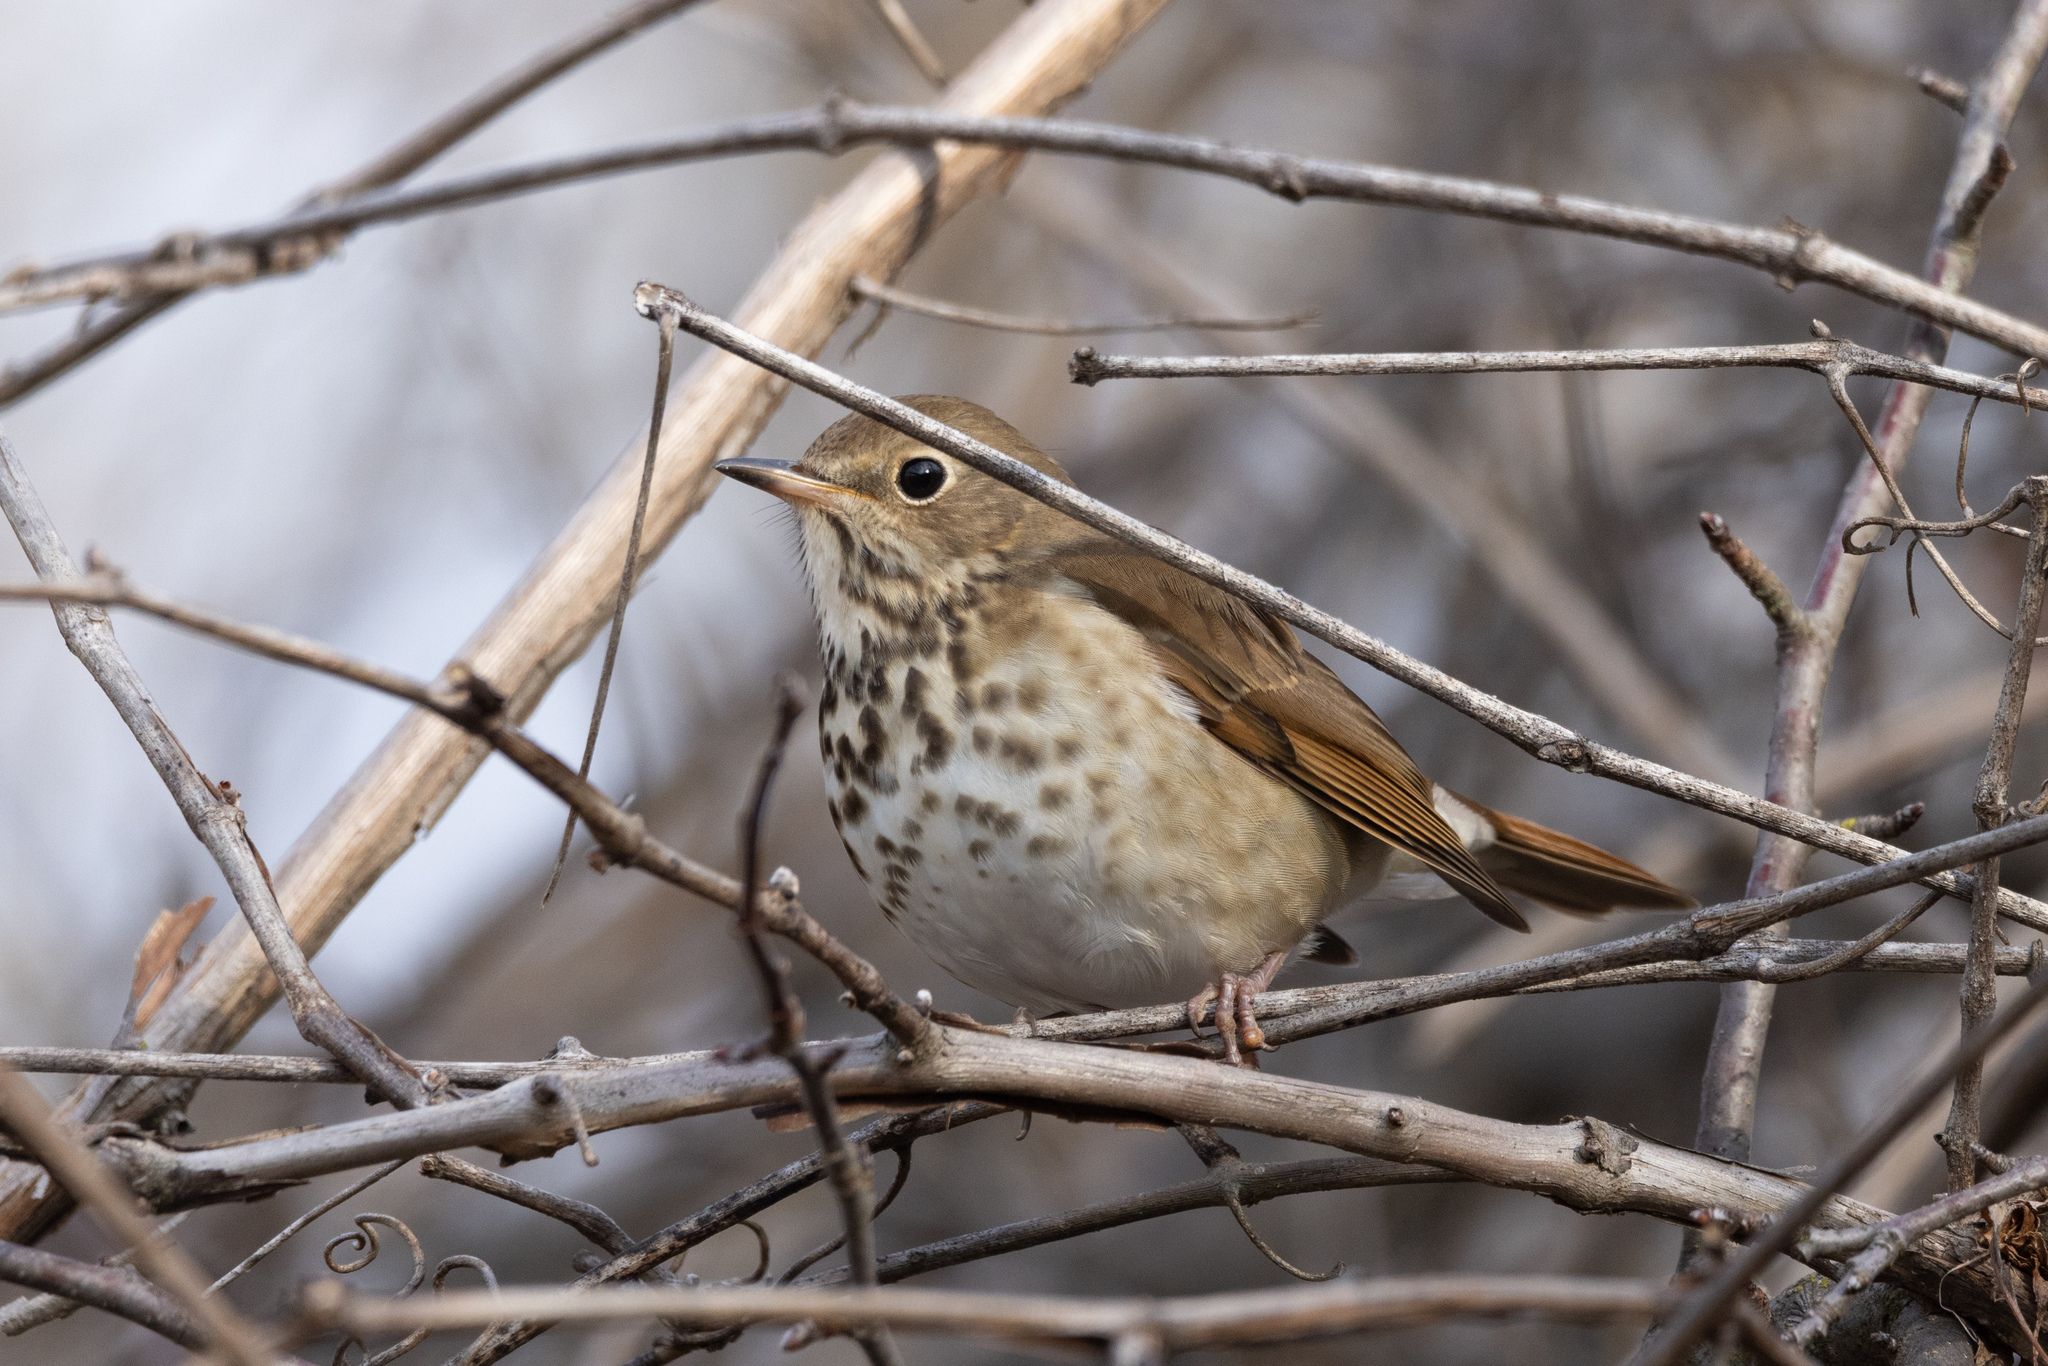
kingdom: Animalia
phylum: Chordata
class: Aves
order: Passeriformes
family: Turdidae
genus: Catharus
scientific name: Catharus guttatus
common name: Hermit thrush
